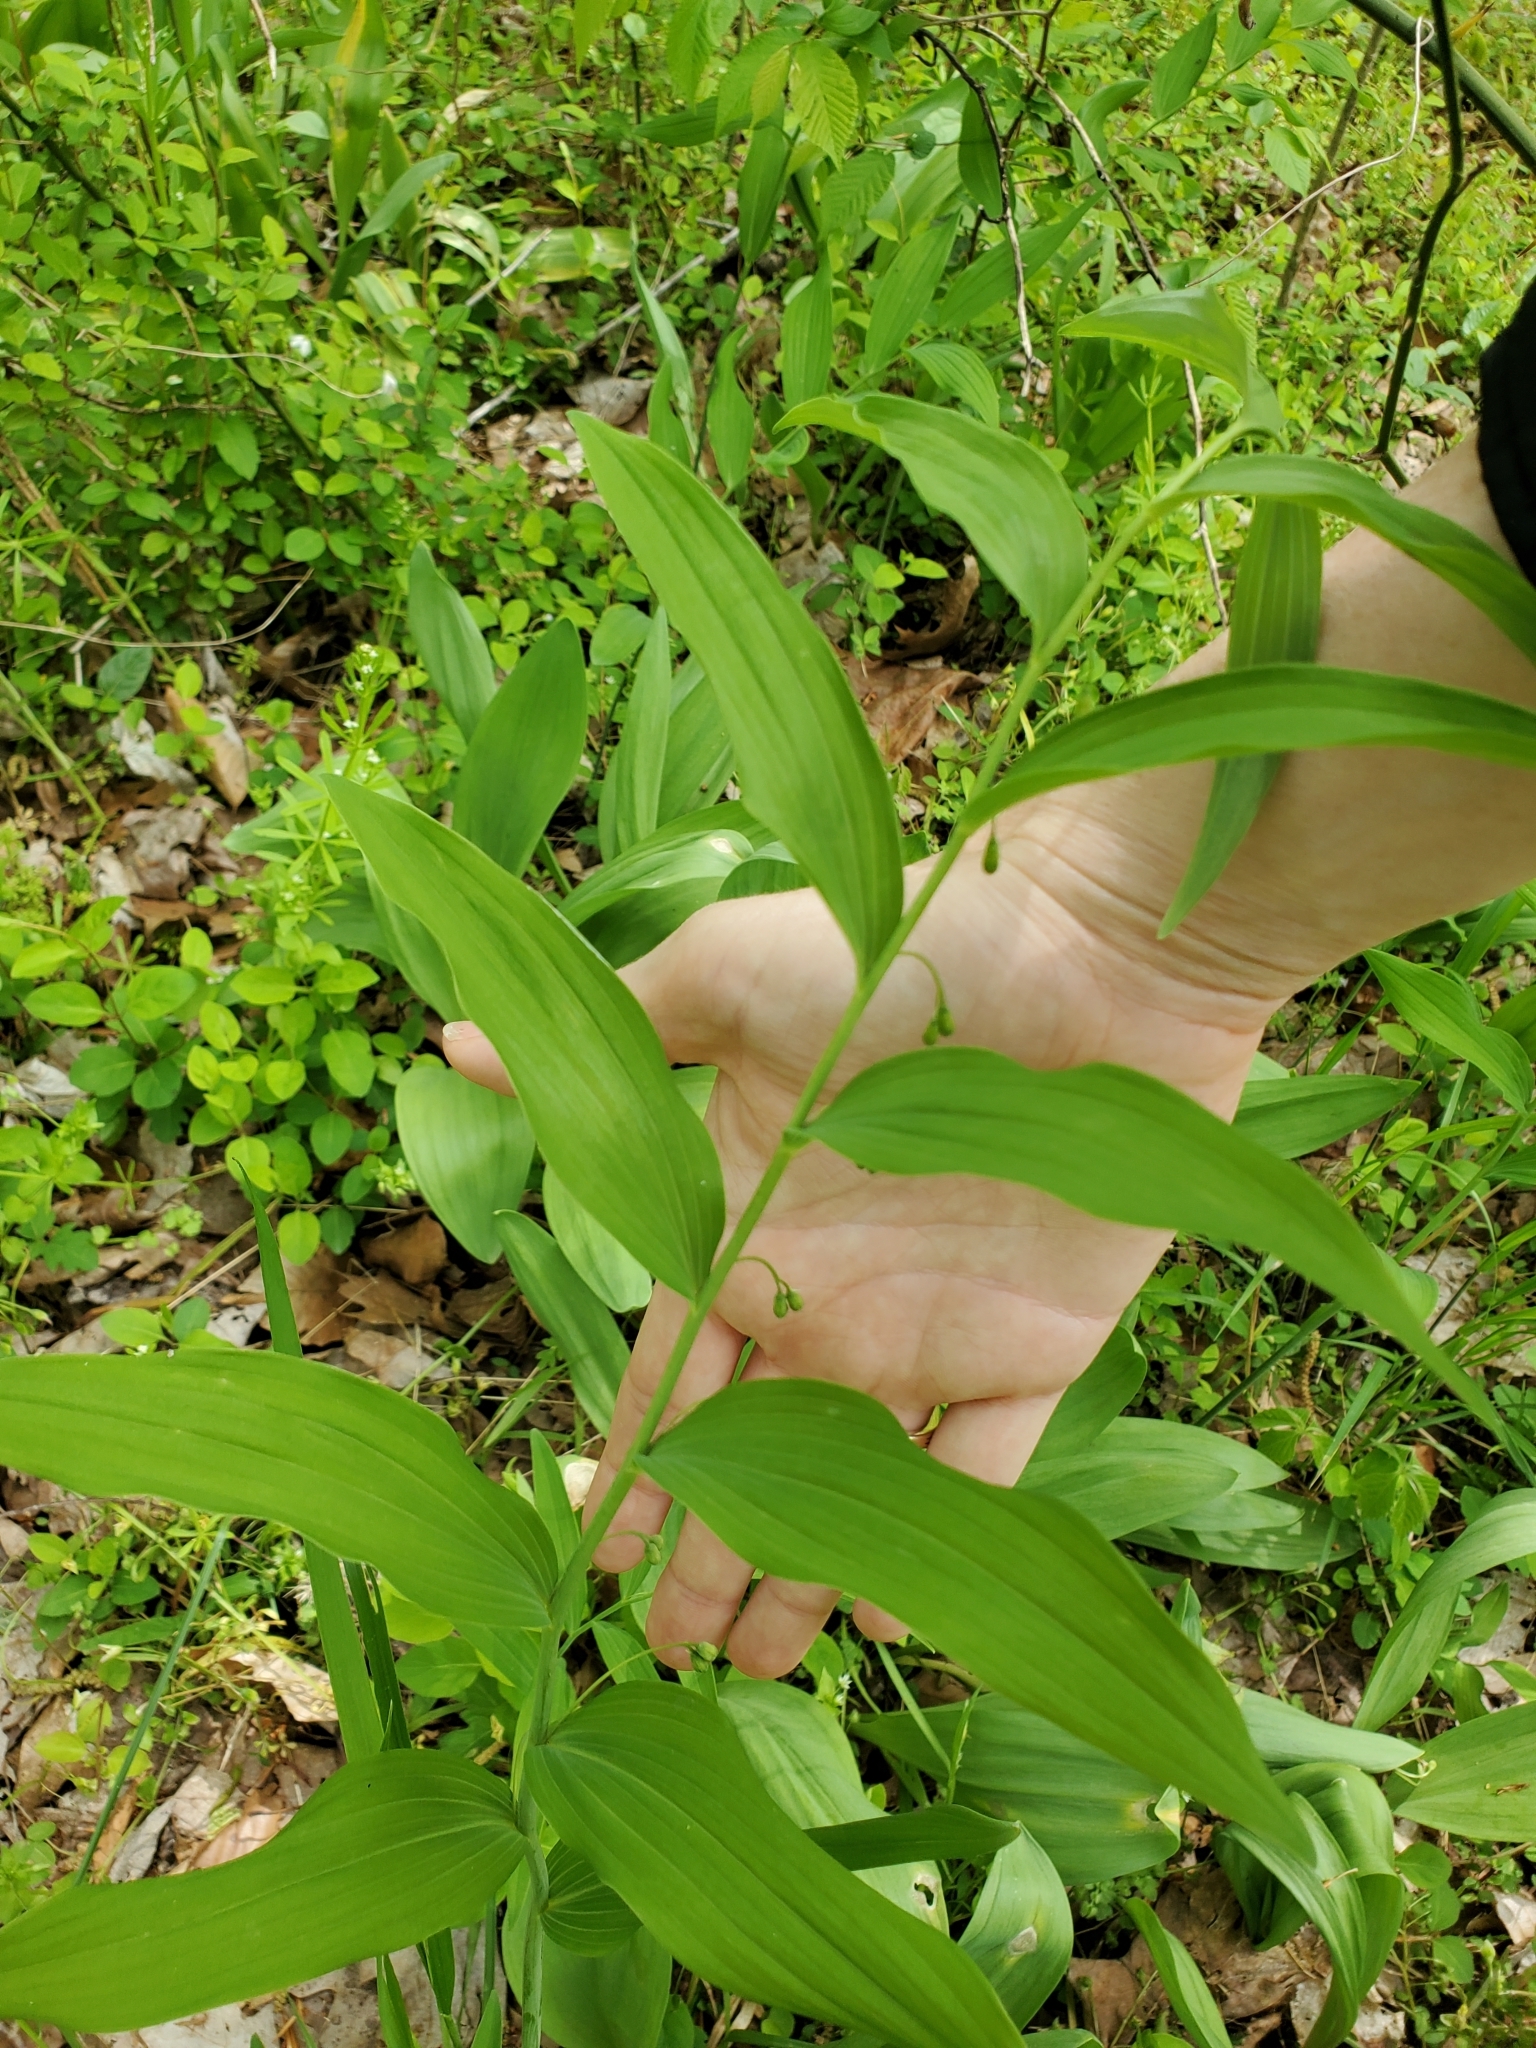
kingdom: Plantae
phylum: Tracheophyta
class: Liliopsida
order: Asparagales
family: Asparagaceae
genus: Polygonatum
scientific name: Polygonatum biflorum
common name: American solomon's-seal
